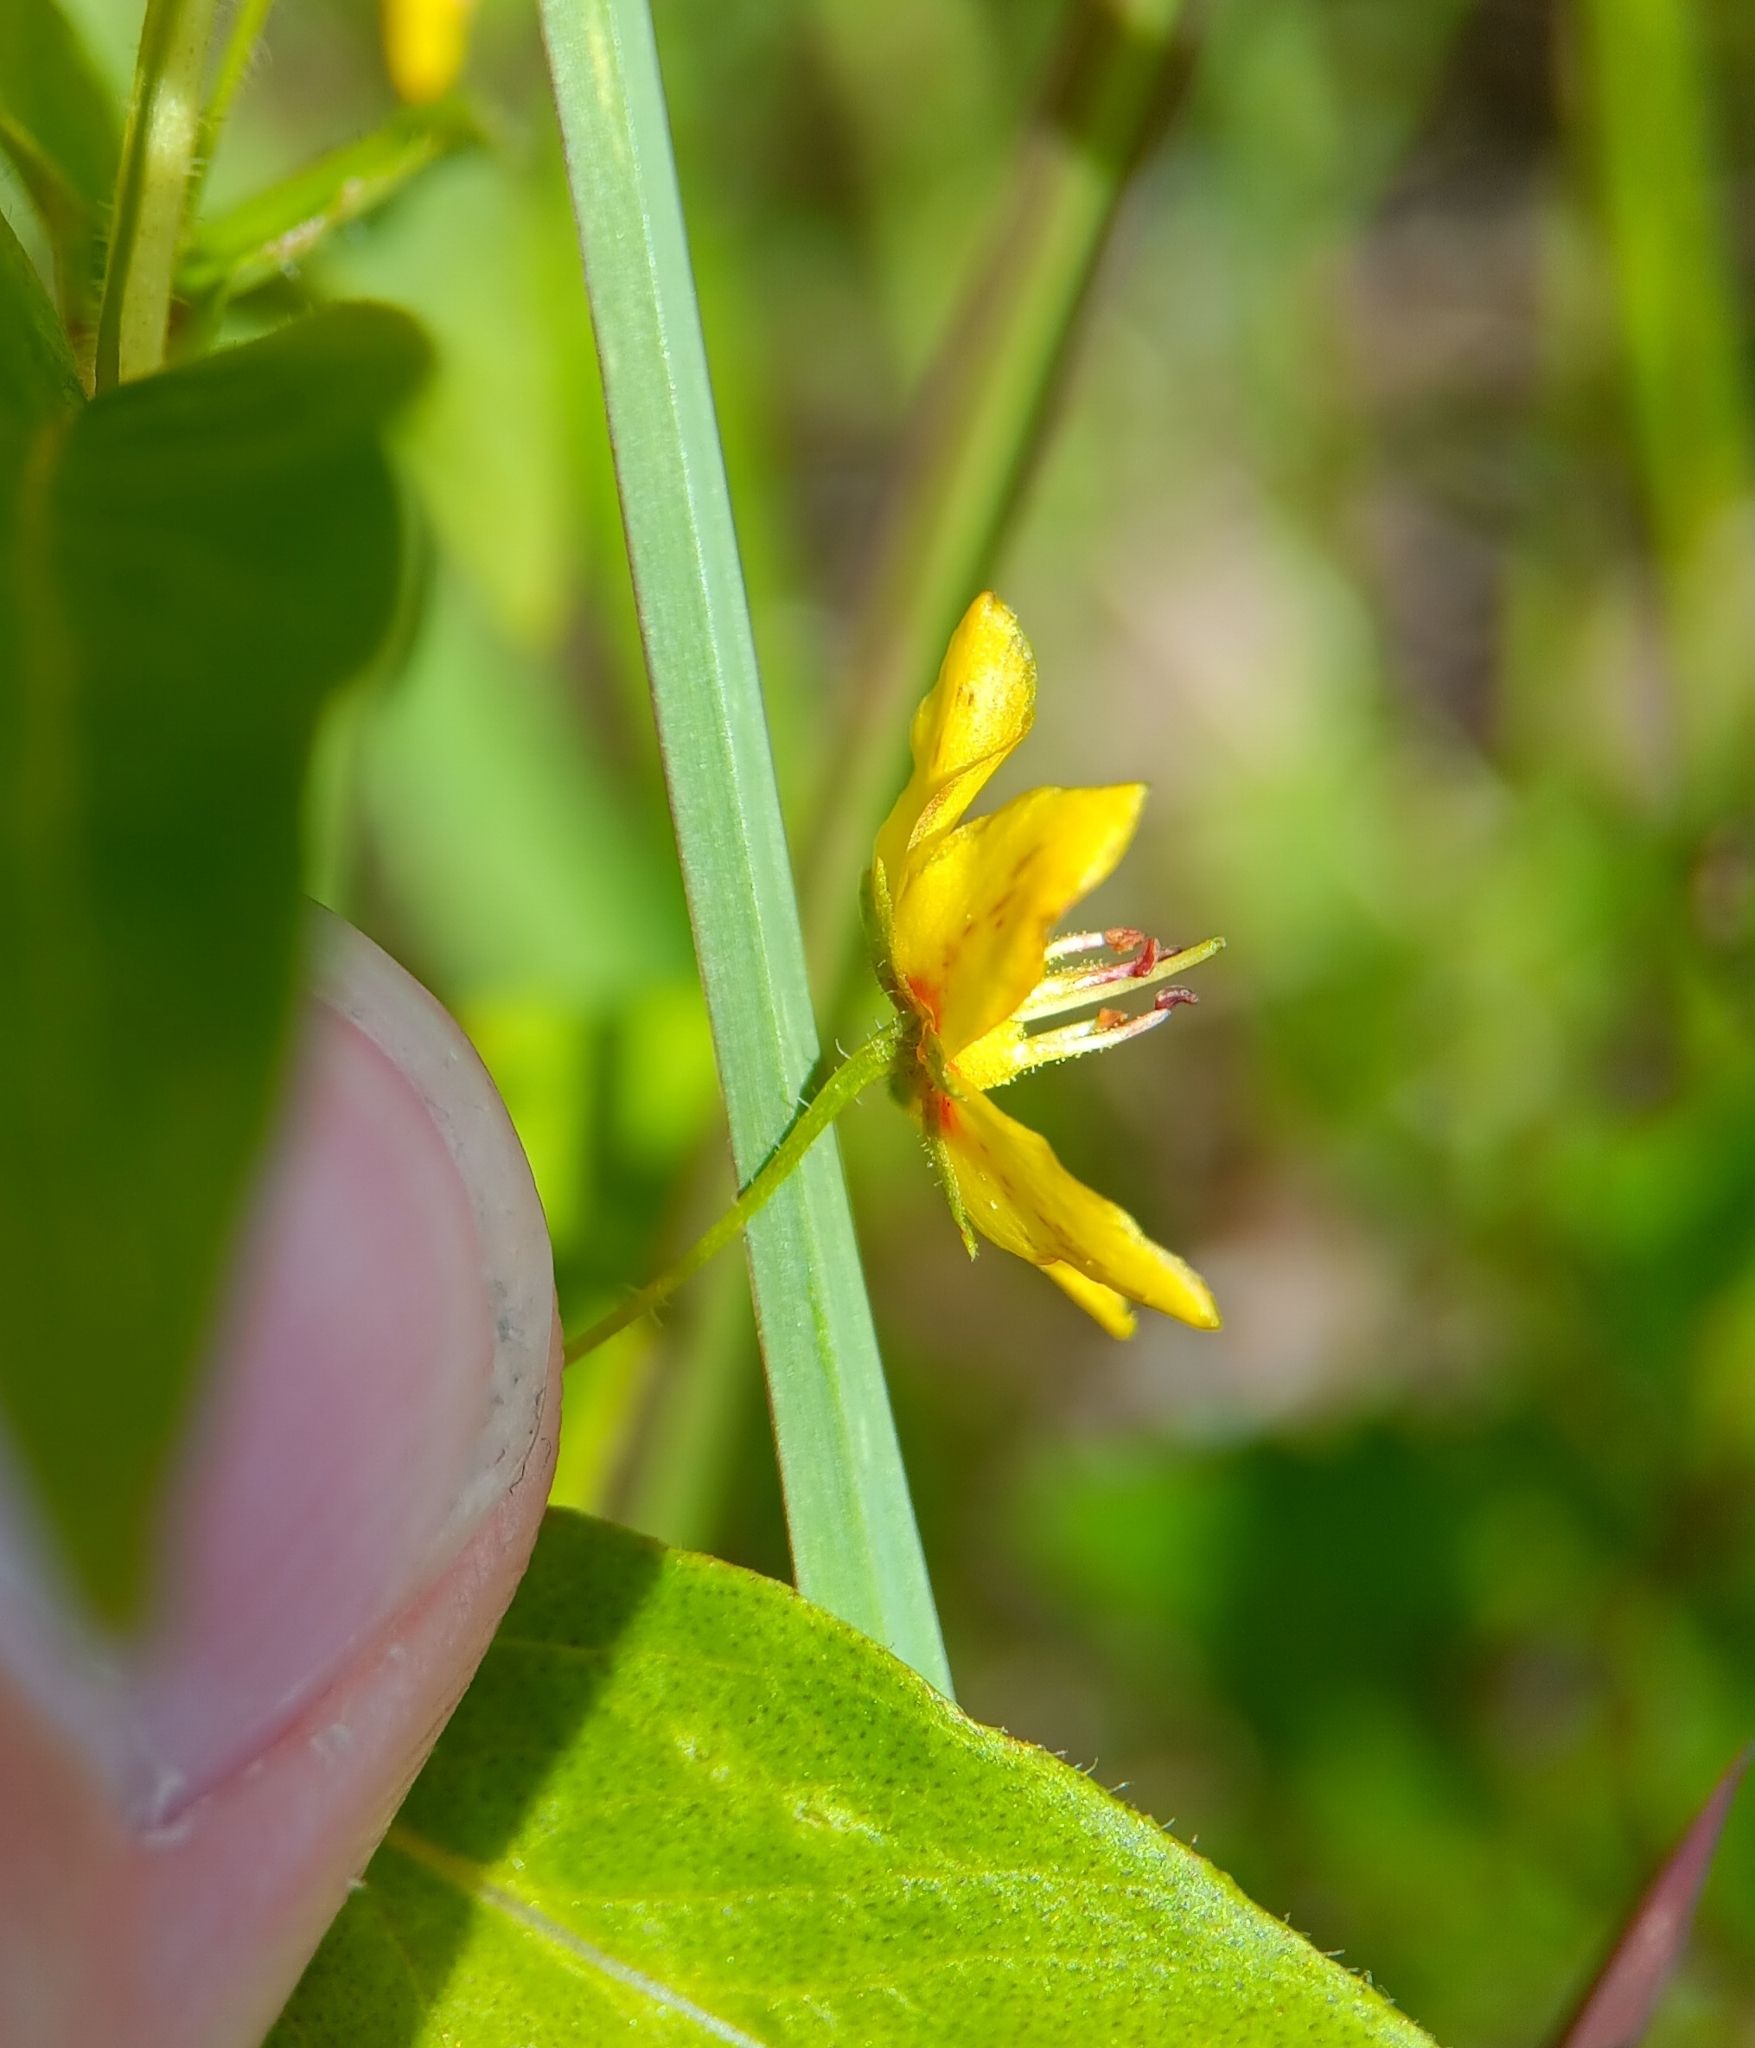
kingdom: Plantae
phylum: Tracheophyta
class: Magnoliopsida
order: Ericales
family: Primulaceae
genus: Lysimachia
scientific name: Lysimachia quadrifolia
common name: Whorled loosestrife
